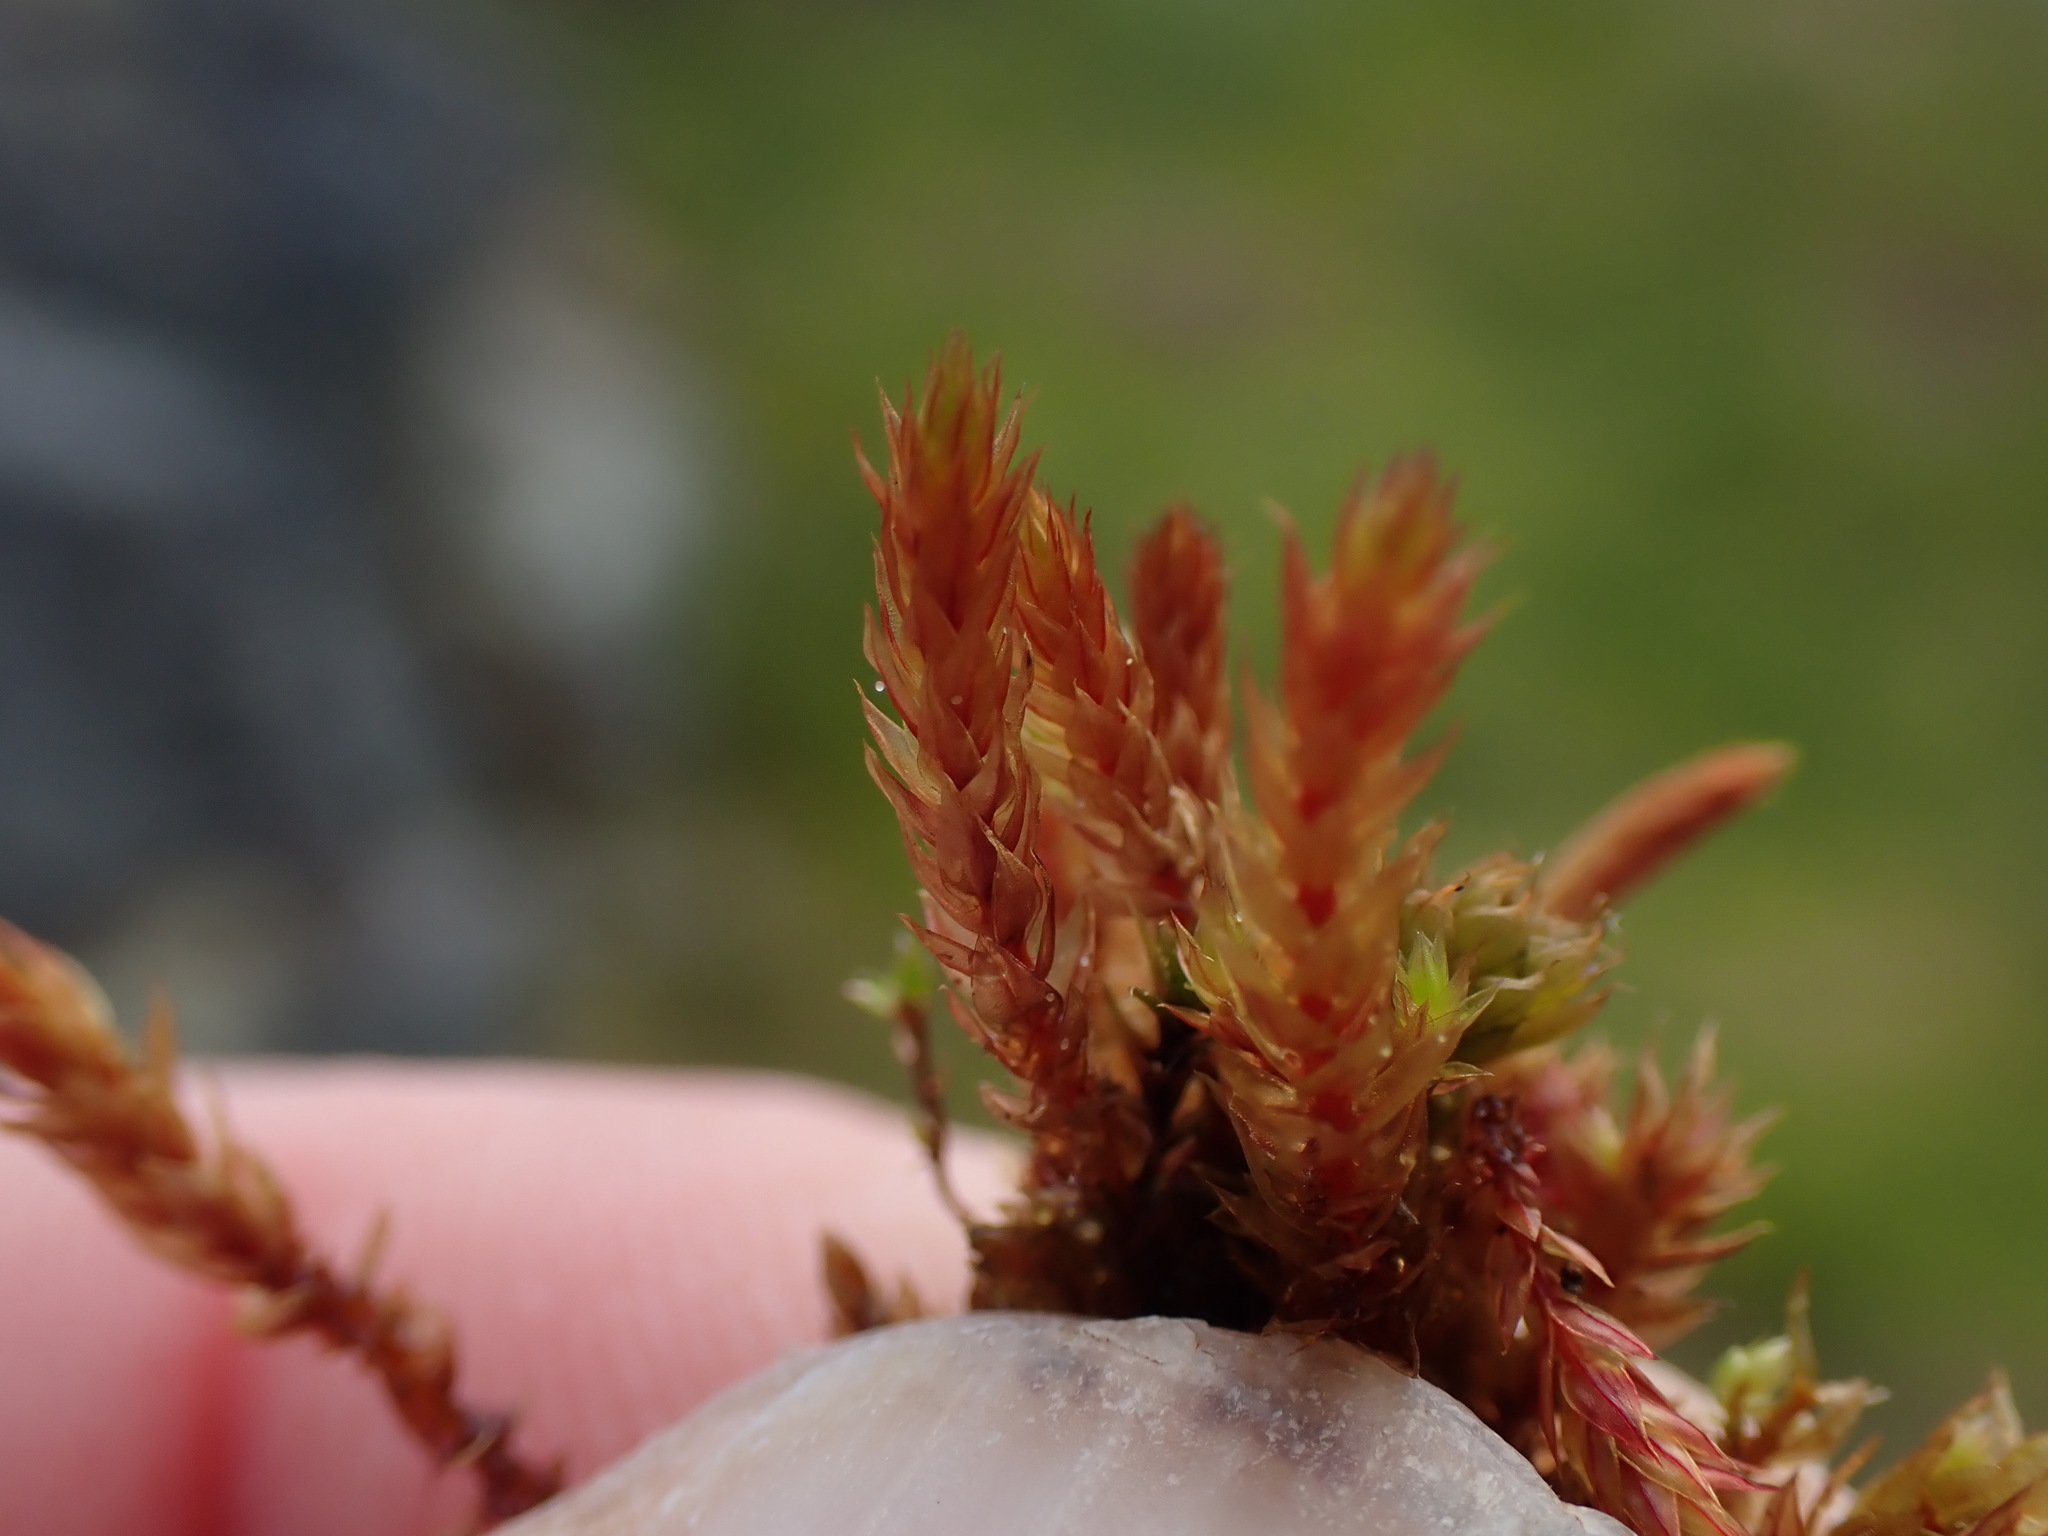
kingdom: Plantae
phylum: Bryophyta
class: Bryopsida
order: Bryales
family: Bryaceae
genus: Imbribryum
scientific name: Imbribryum torenii
